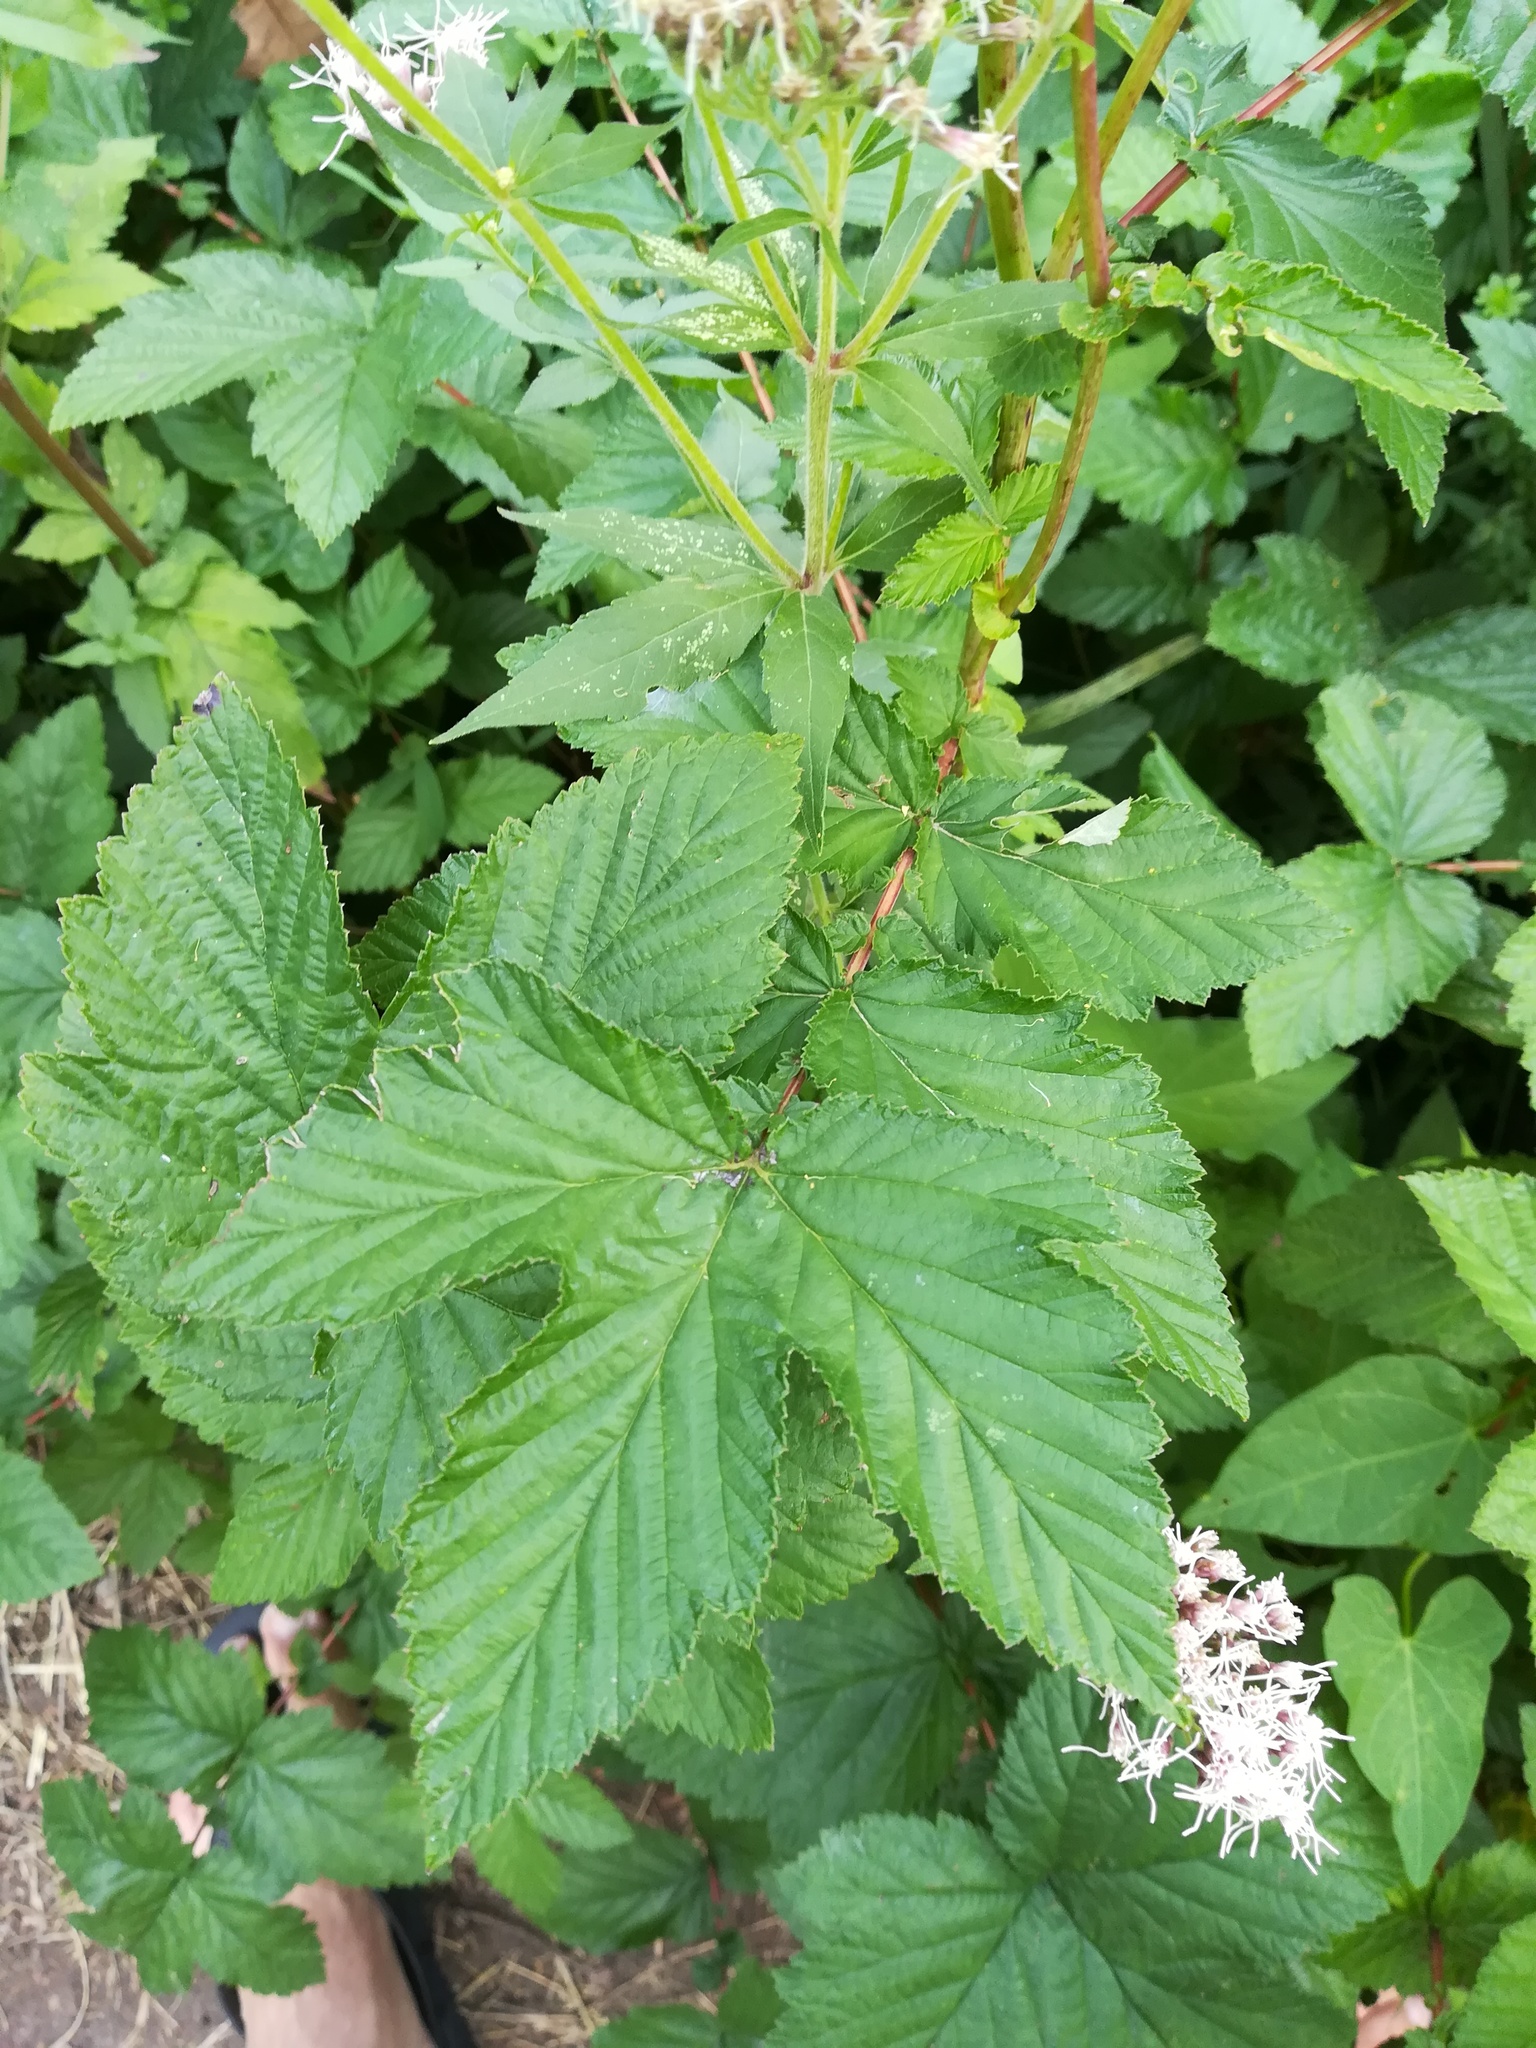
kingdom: Plantae
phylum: Tracheophyta
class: Magnoliopsida
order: Rosales
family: Rosaceae
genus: Filipendula
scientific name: Filipendula ulmaria
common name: Meadowsweet
